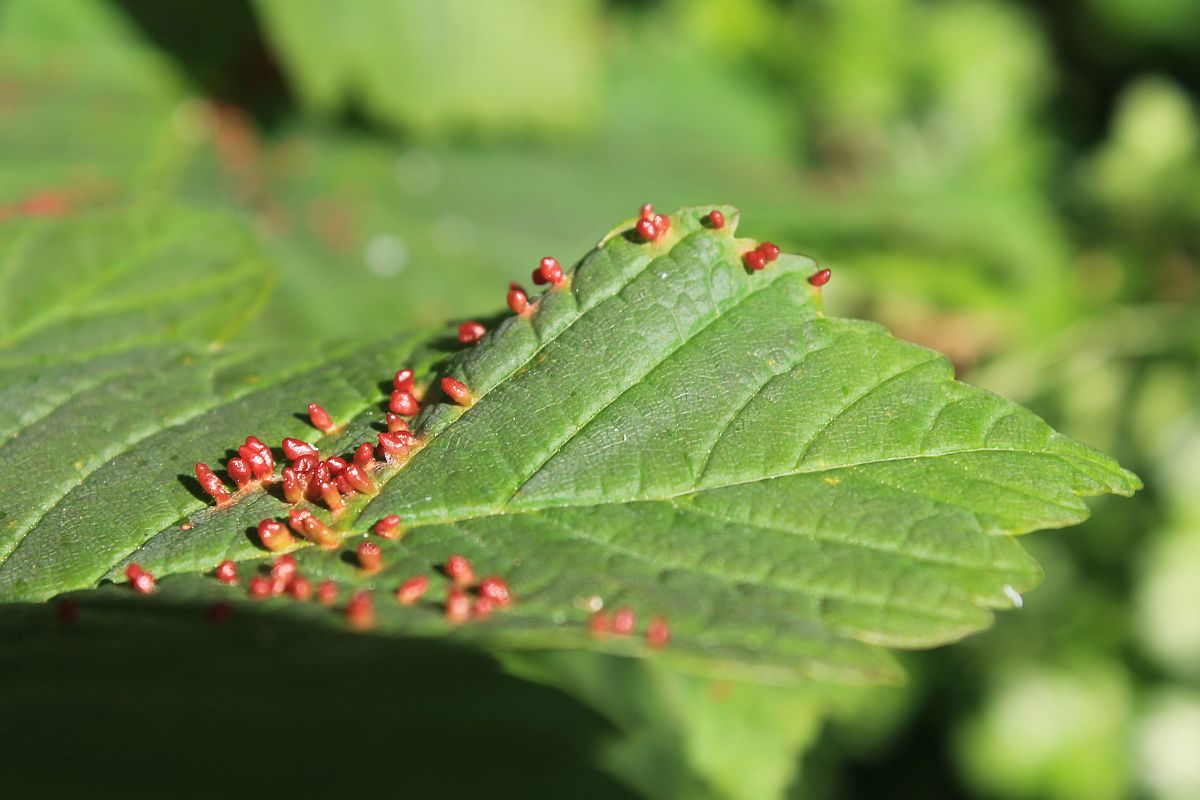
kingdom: Animalia
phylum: Arthropoda
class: Arachnida
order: Trombidiformes
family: Eriophyidae
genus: Aceria
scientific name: Aceria cephaloneus
